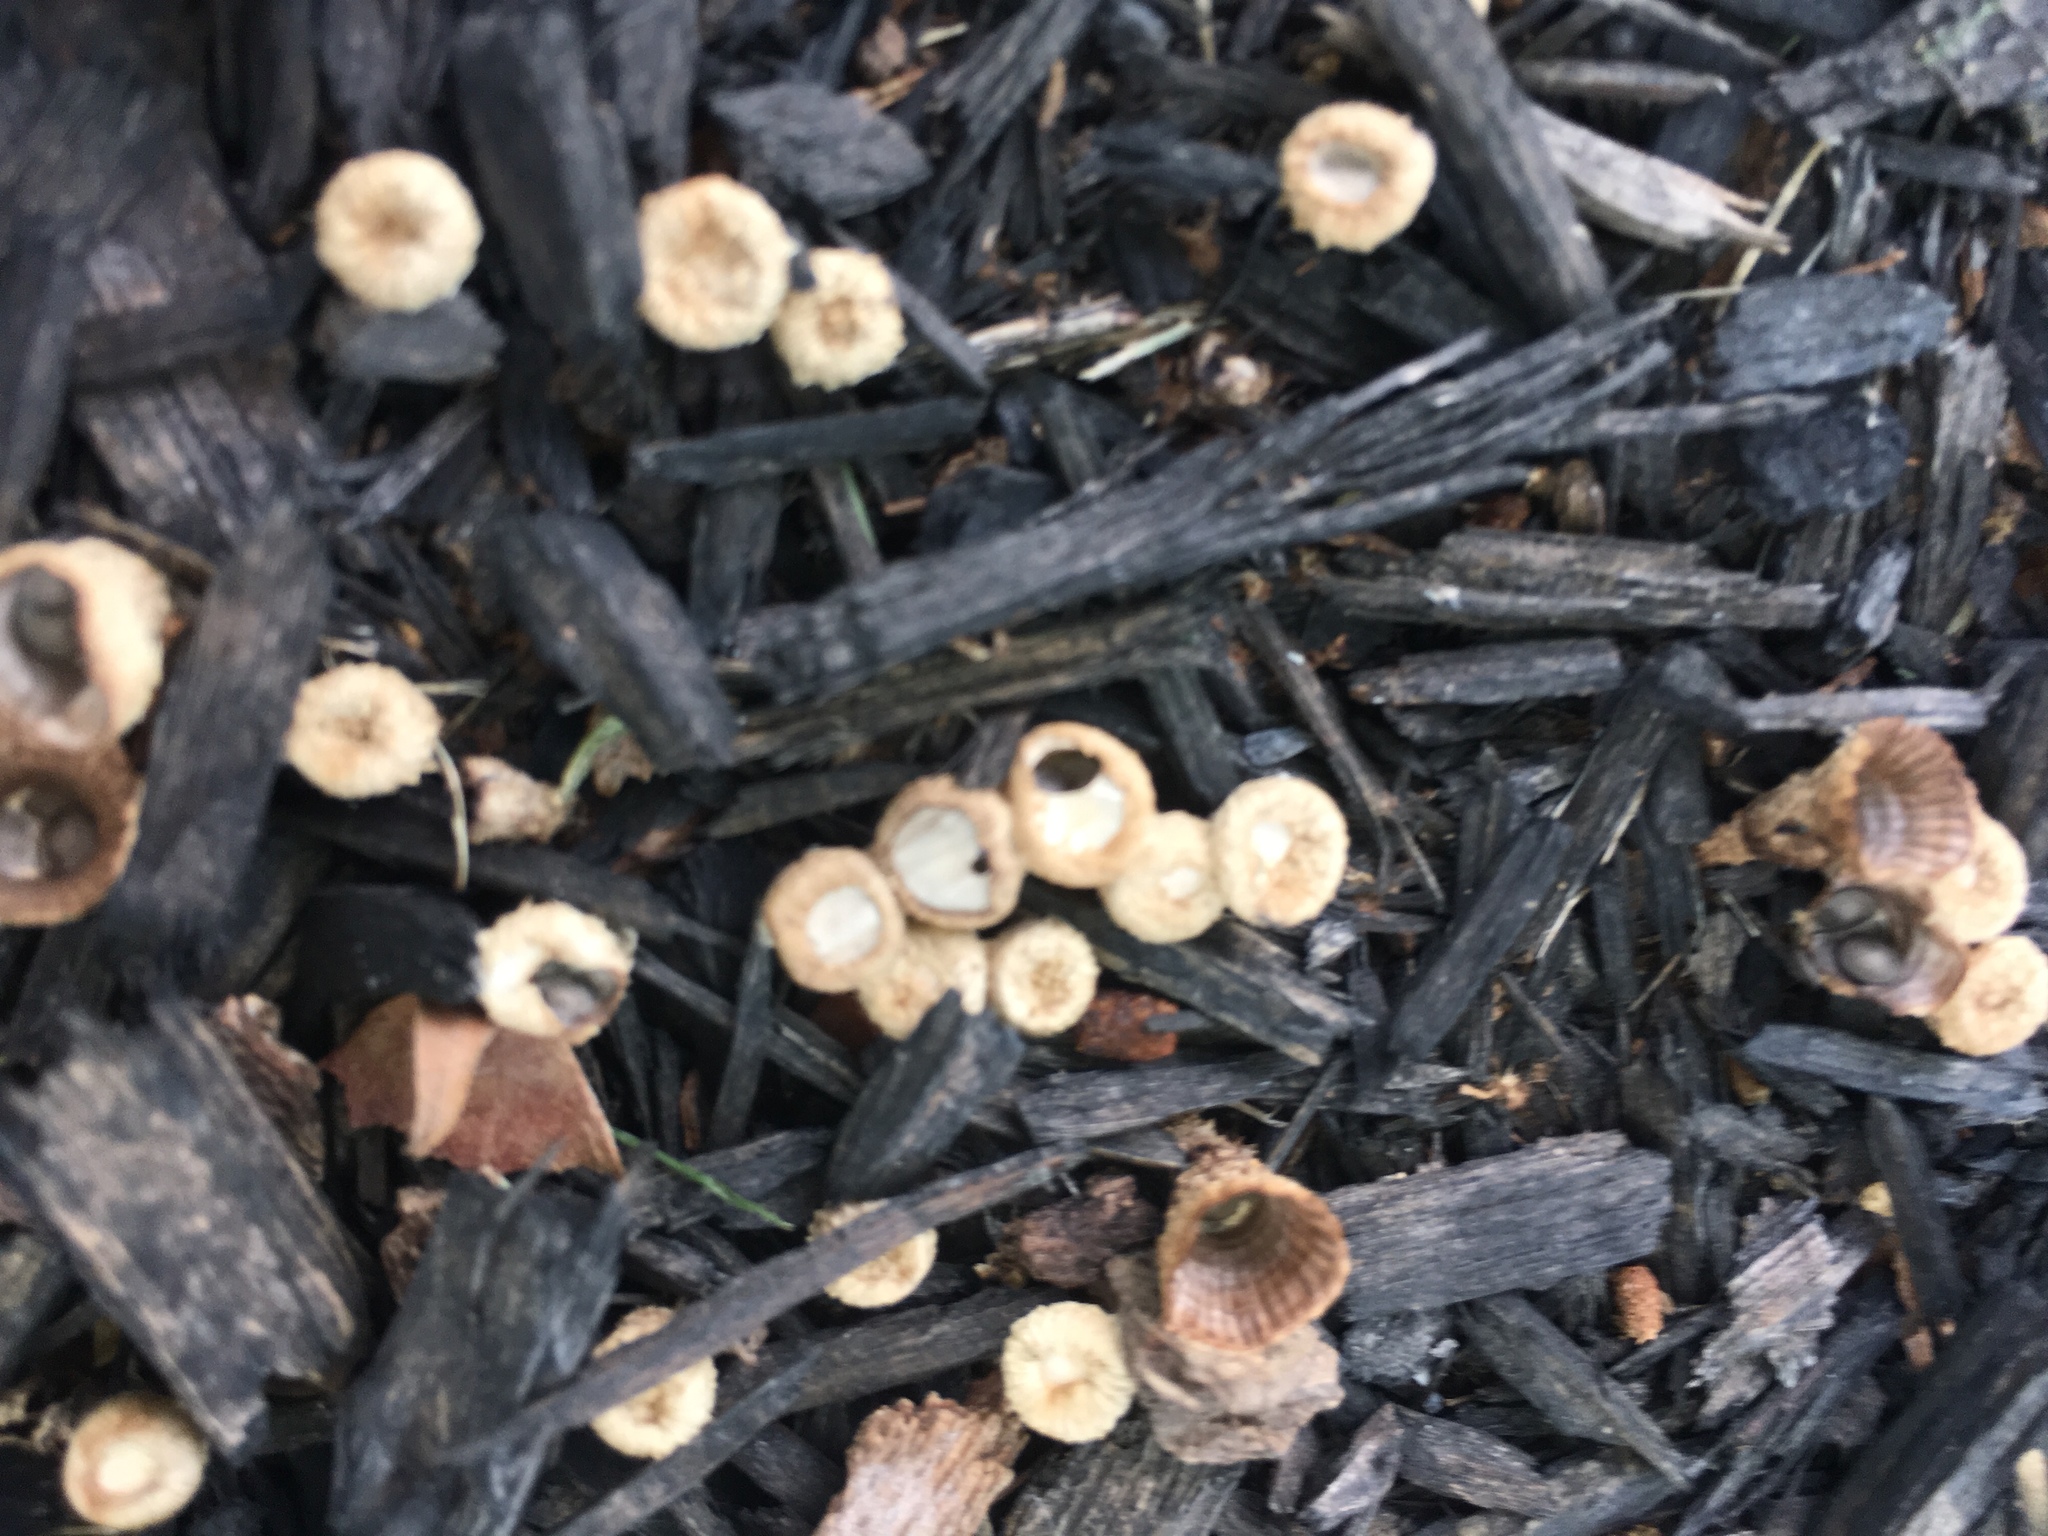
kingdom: Fungi
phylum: Basidiomycota
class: Agaricomycetes
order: Agaricales
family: Nidulariaceae
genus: Crucibulum
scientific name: Crucibulum laeve
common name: Common bird's nest
